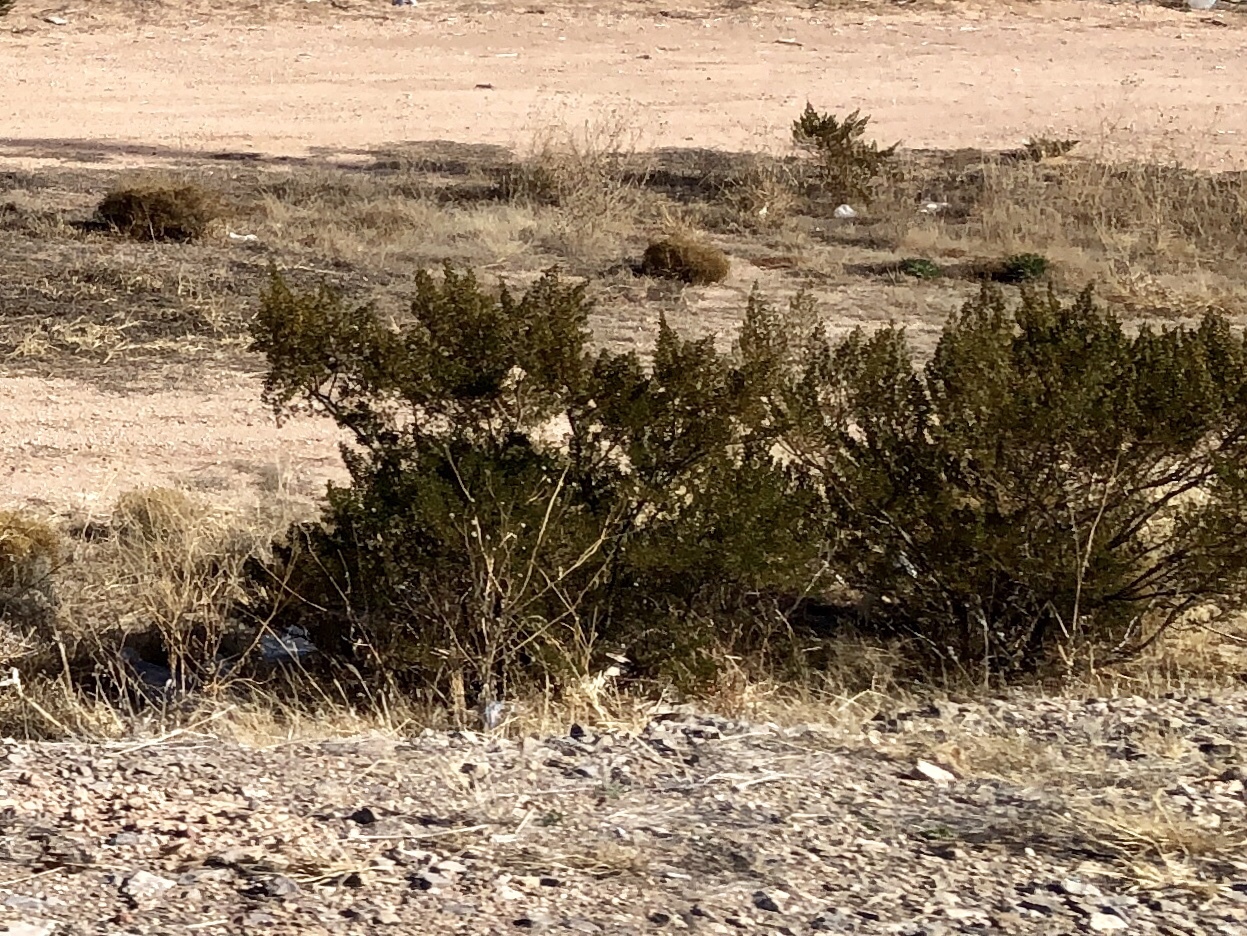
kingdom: Plantae
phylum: Tracheophyta
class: Magnoliopsida
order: Zygophyllales
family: Zygophyllaceae
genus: Larrea
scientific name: Larrea tridentata
